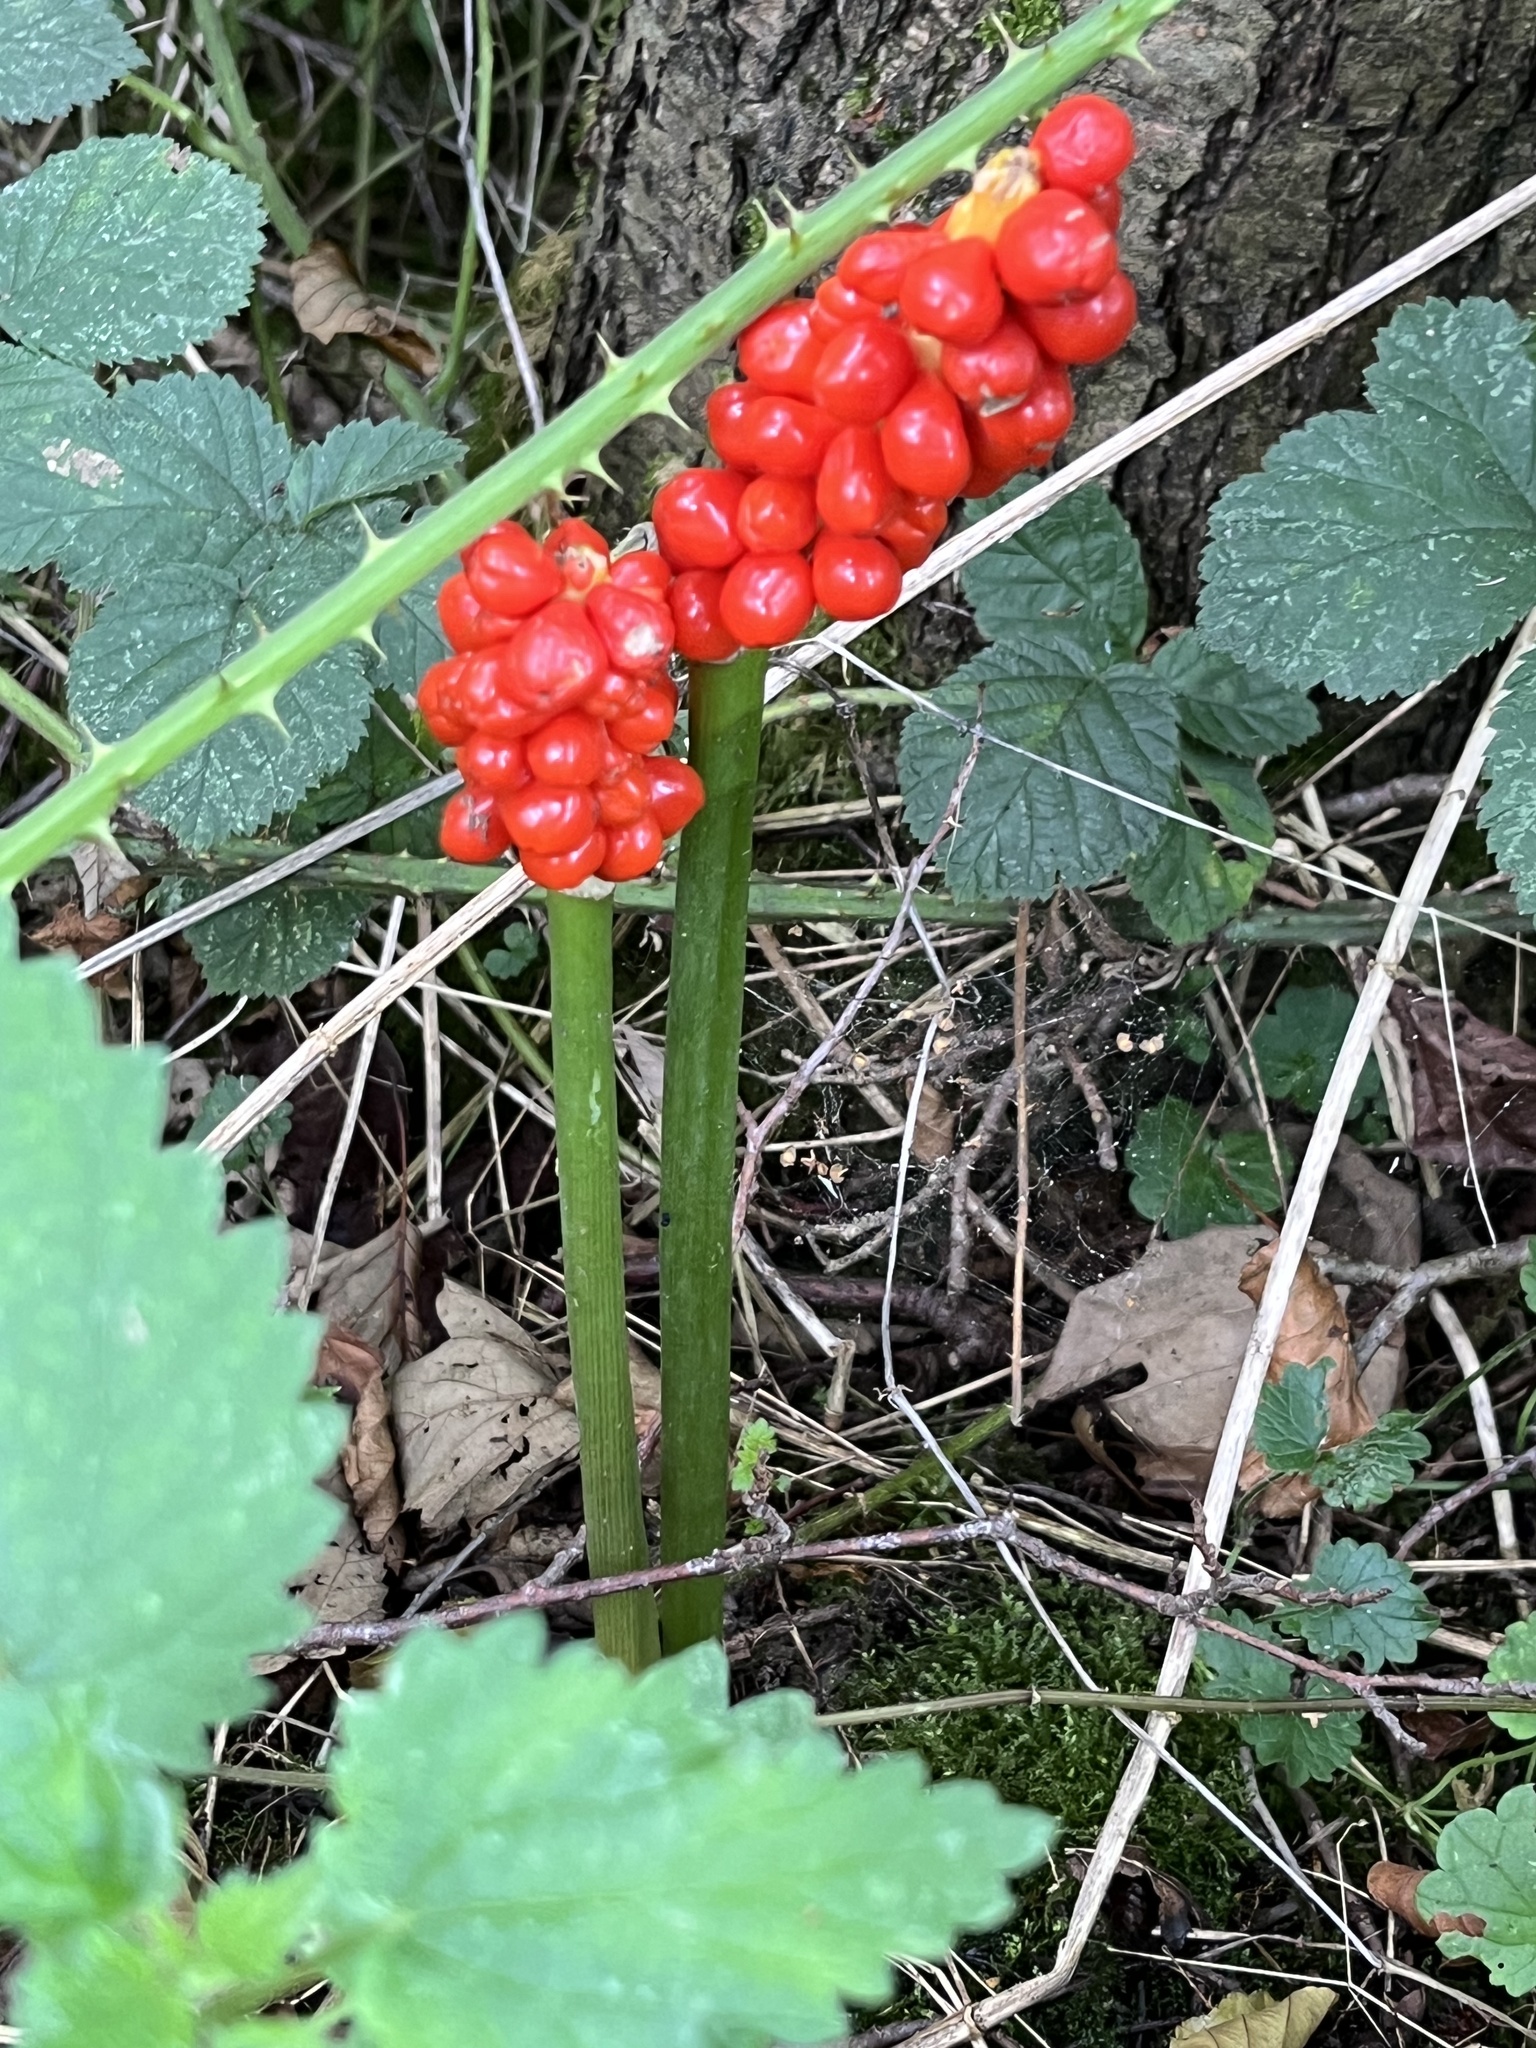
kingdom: Plantae
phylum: Tracheophyta
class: Liliopsida
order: Alismatales
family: Araceae
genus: Arum
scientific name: Arum maculatum
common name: Lords-and-ladies
